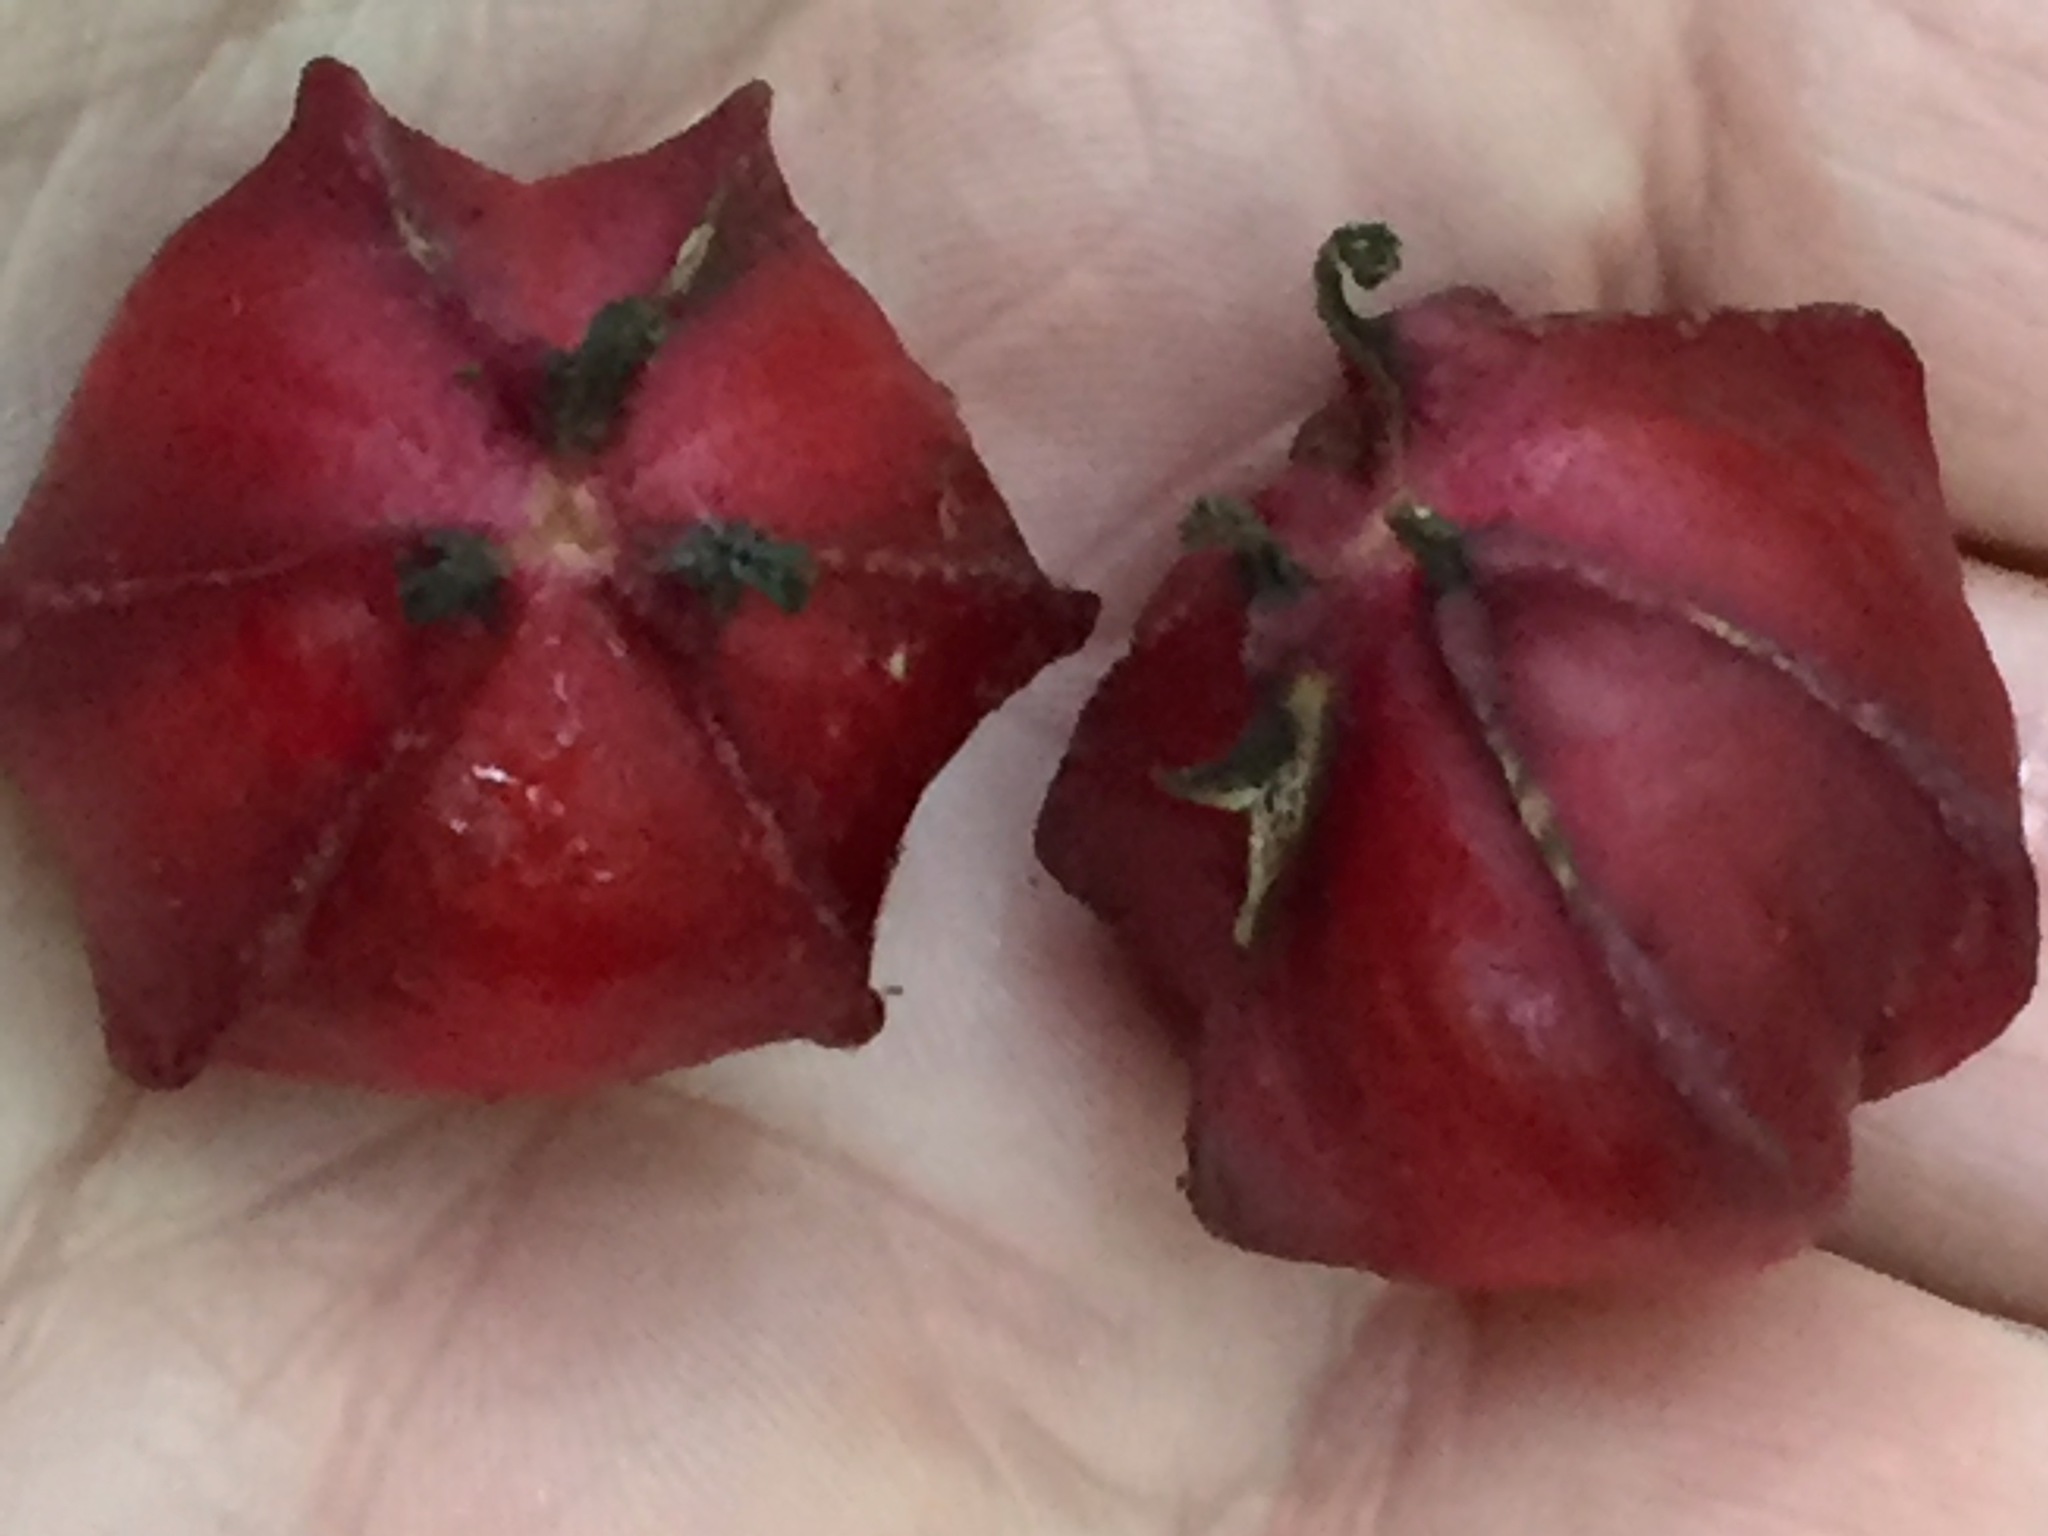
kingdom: Plantae
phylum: Tracheophyta
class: Liliopsida
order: Liliales
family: Melanthiaceae
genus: Trillium
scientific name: Trillium erectum
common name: Purple trillium
